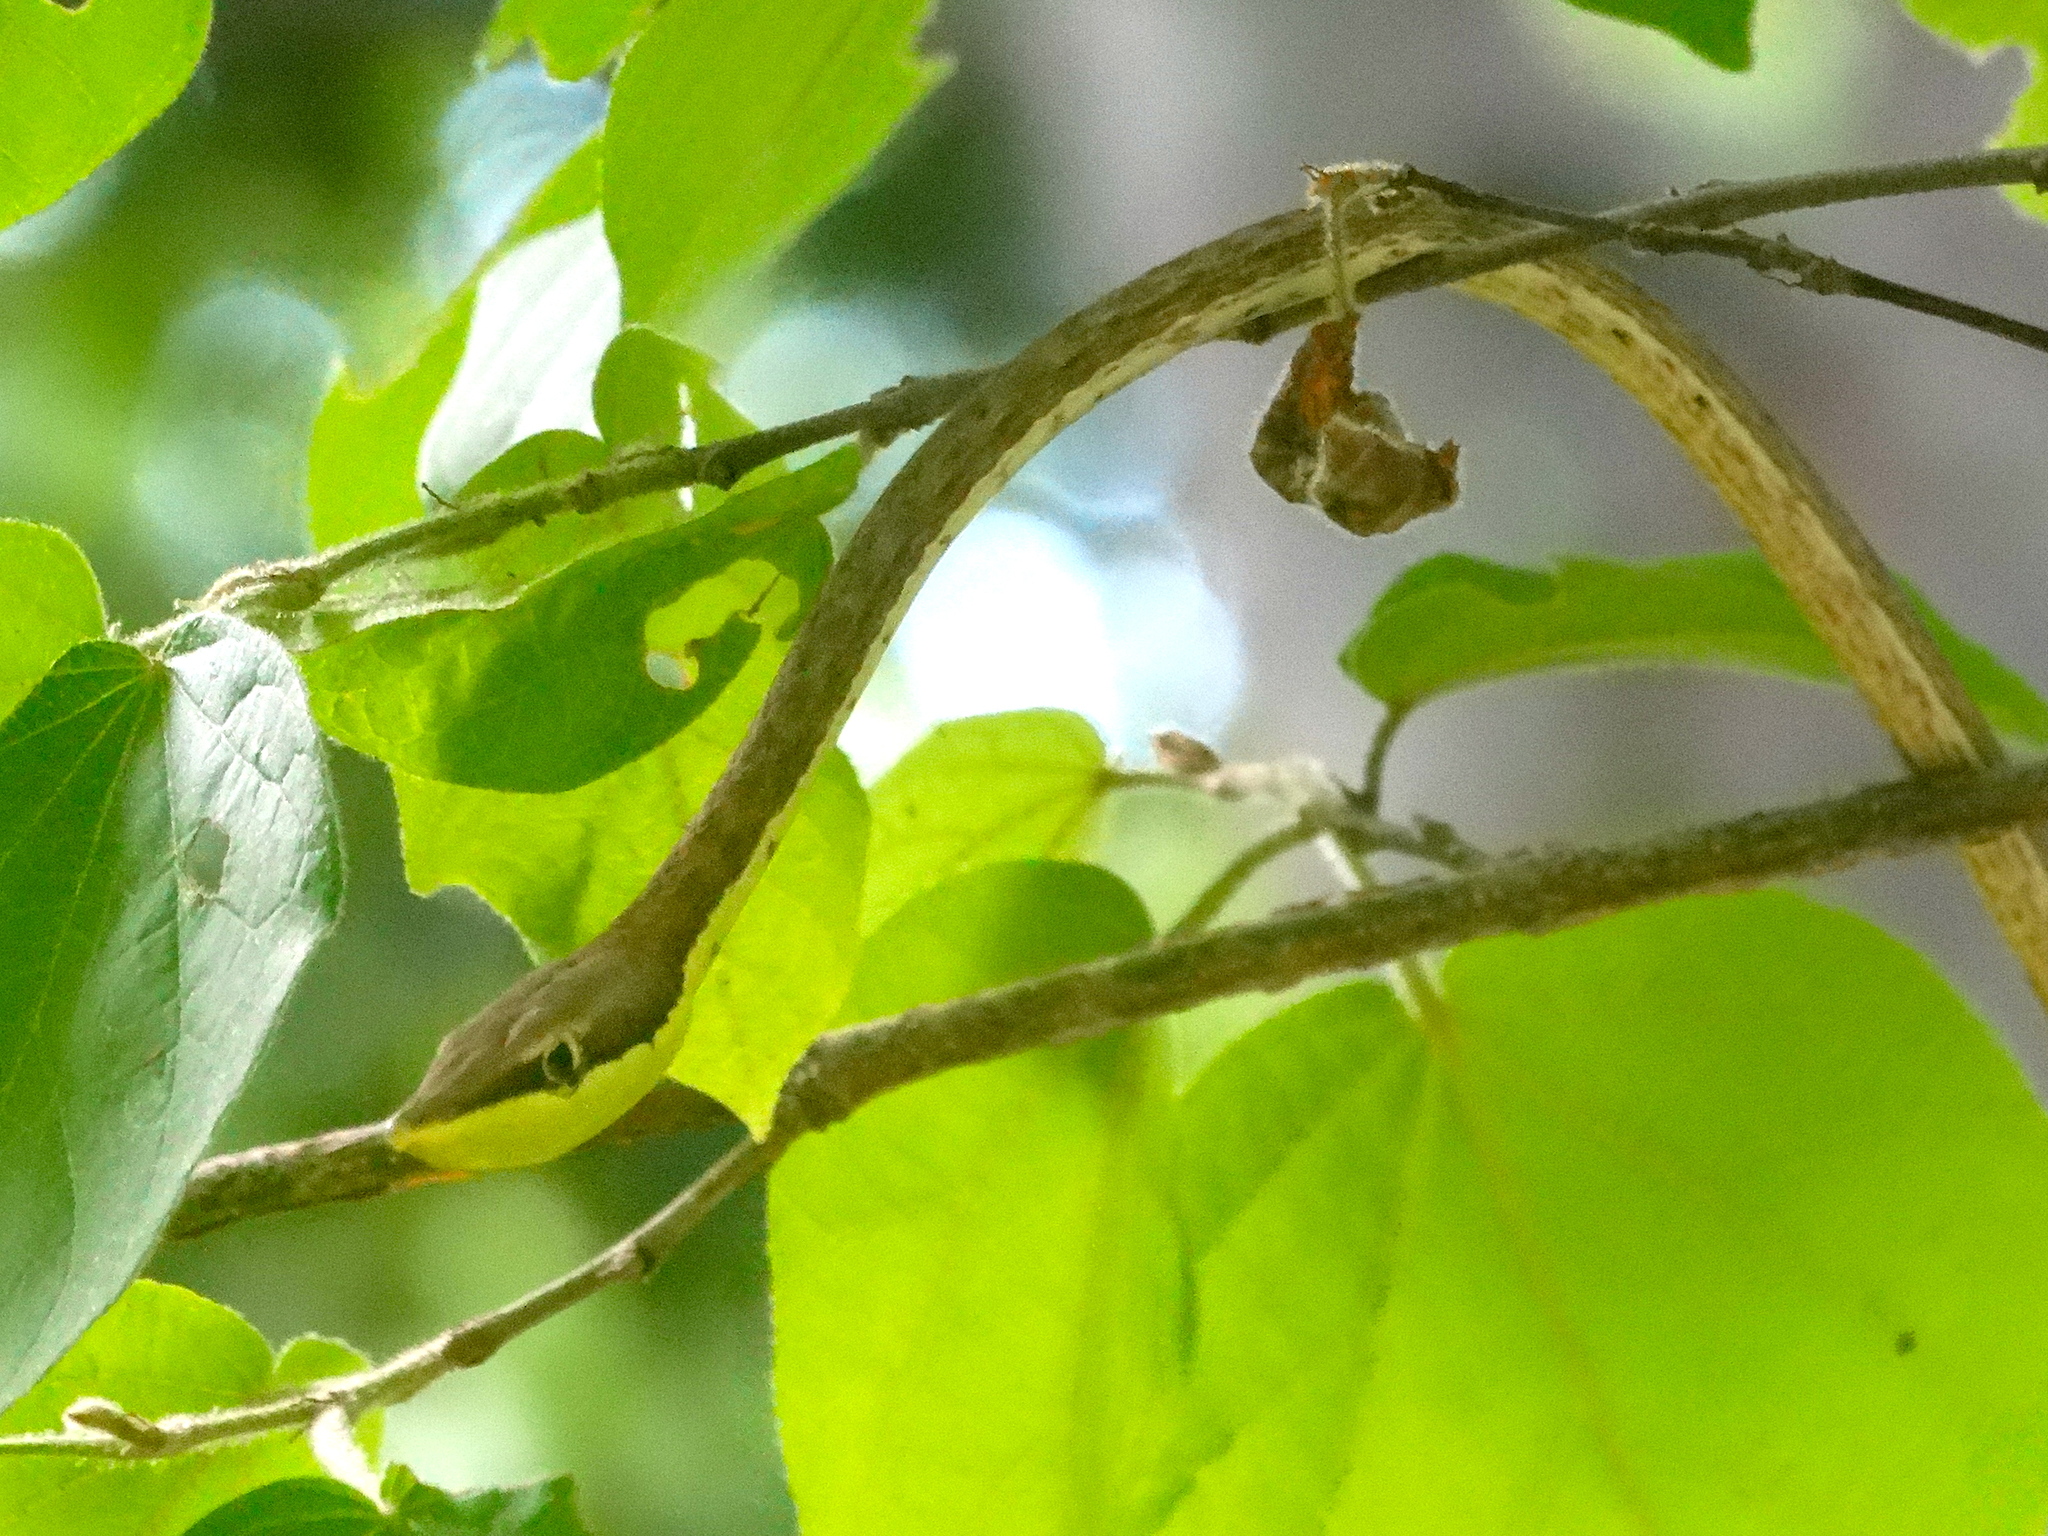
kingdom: Animalia
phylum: Chordata
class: Squamata
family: Colubridae
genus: Oxybelis
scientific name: Oxybelis microphthalmus
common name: Thrornscrub vine snake
